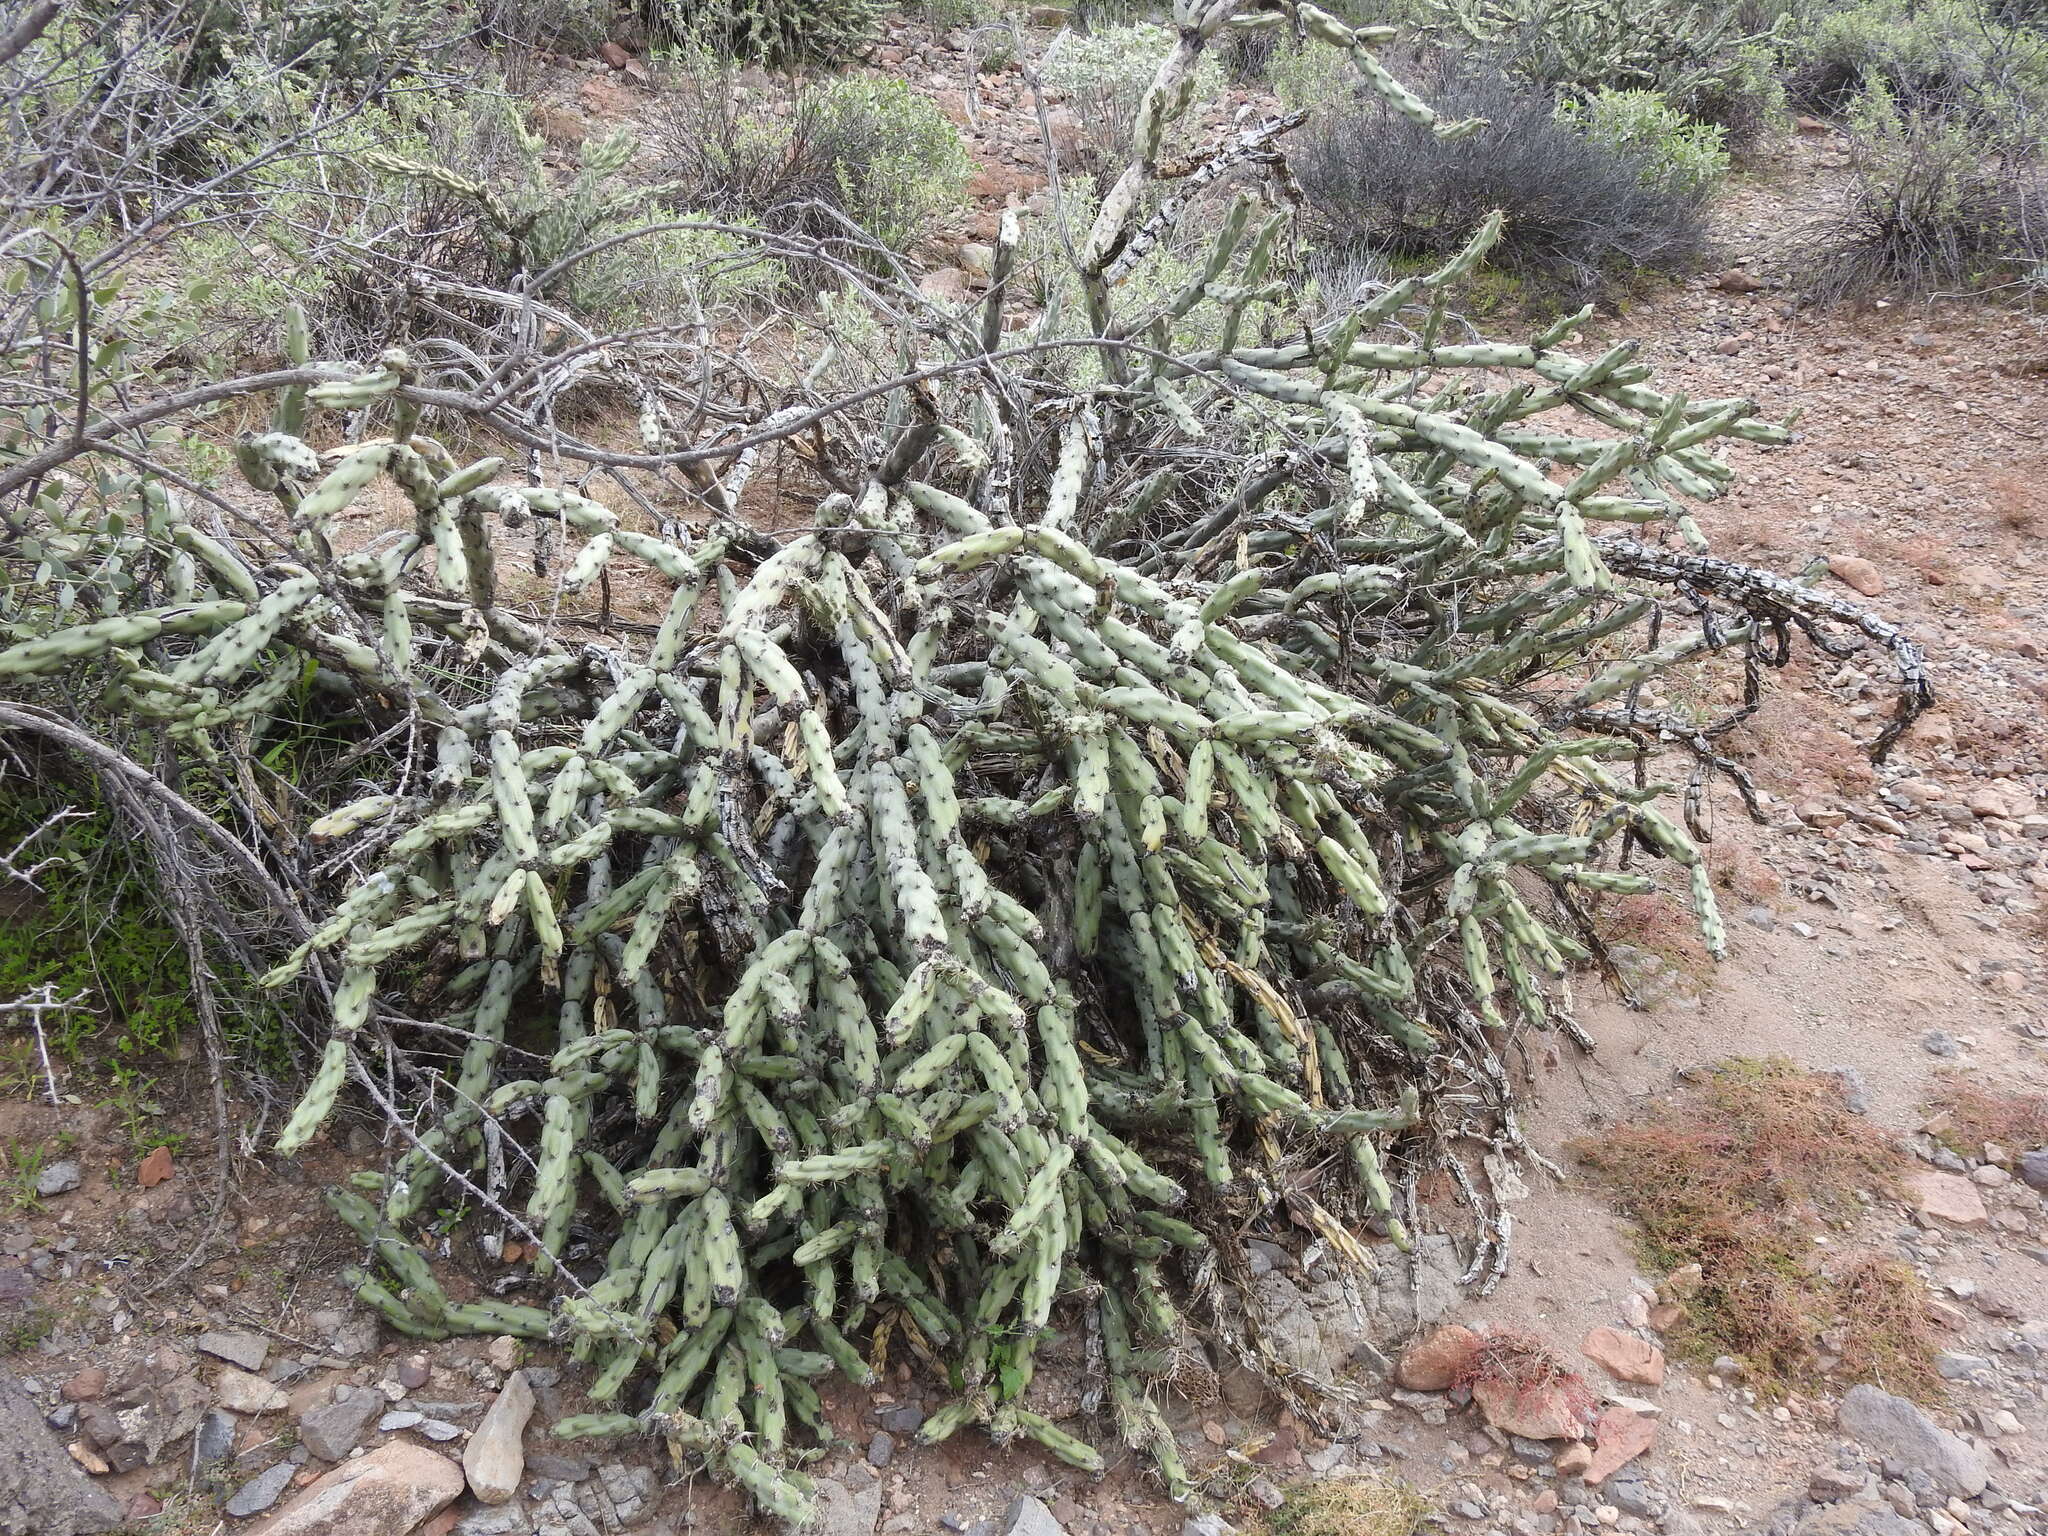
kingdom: Plantae
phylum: Tracheophyta
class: Magnoliopsida
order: Caryophyllales
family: Cactaceae
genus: Cylindropuntia
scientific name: Cylindropuntia acanthocarpa
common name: Buckhorn cholla
